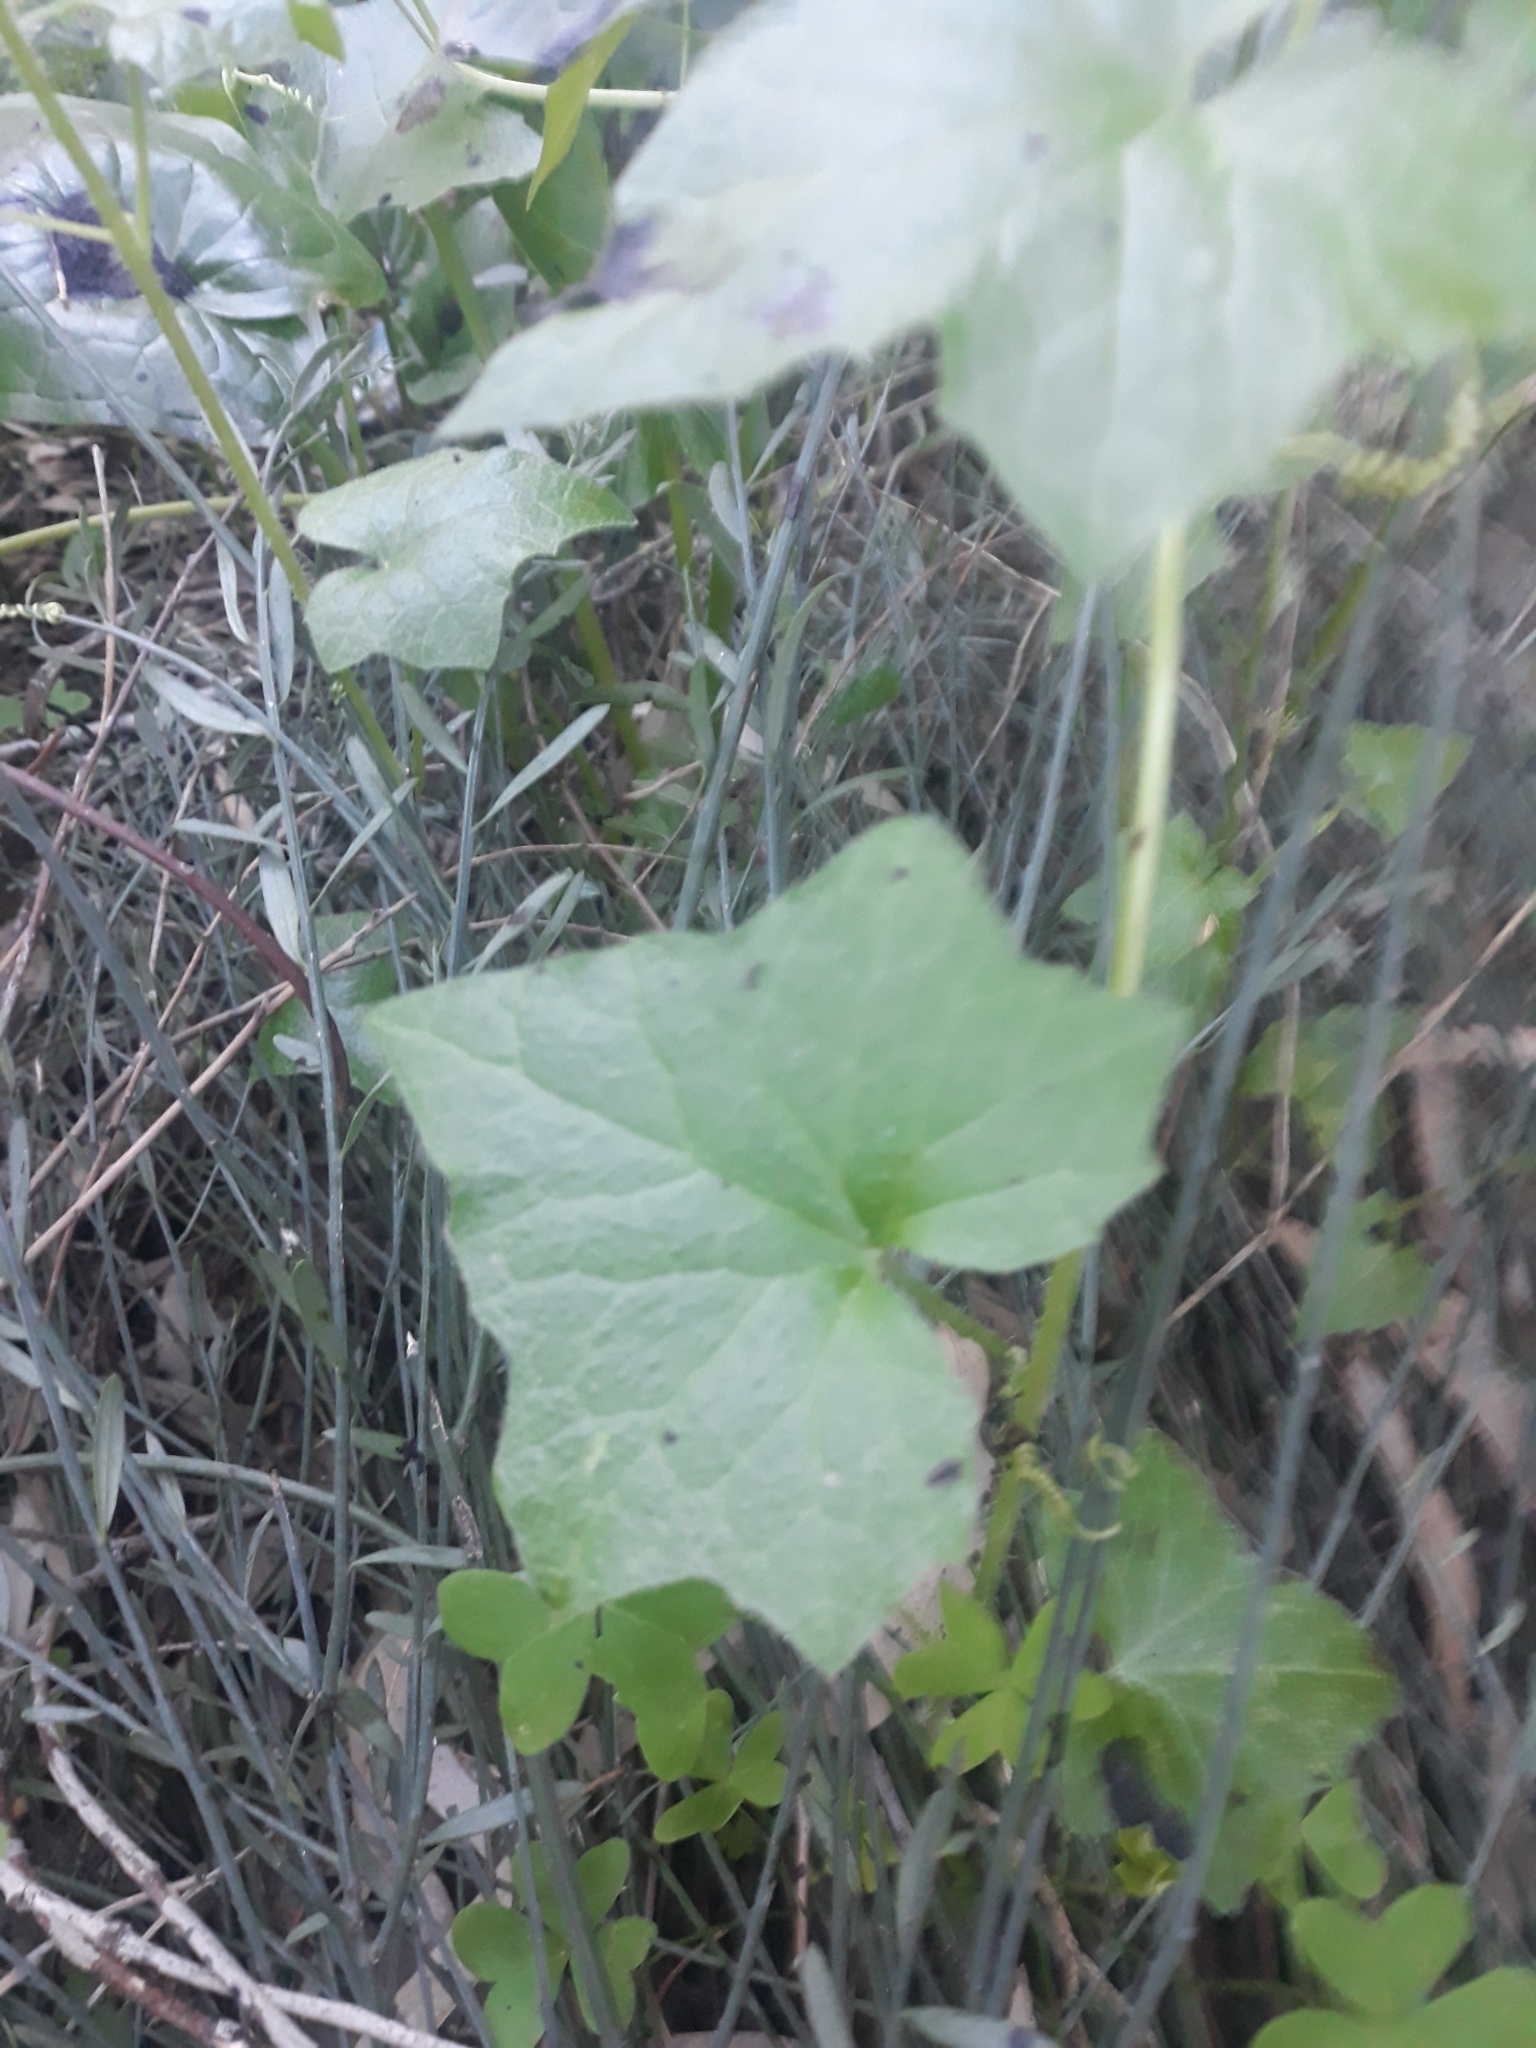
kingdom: Plantae
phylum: Tracheophyta
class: Magnoliopsida
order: Cucurbitales
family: Cucurbitaceae
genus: Bryonia
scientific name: Bryonia cretica
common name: Cretan bryony
